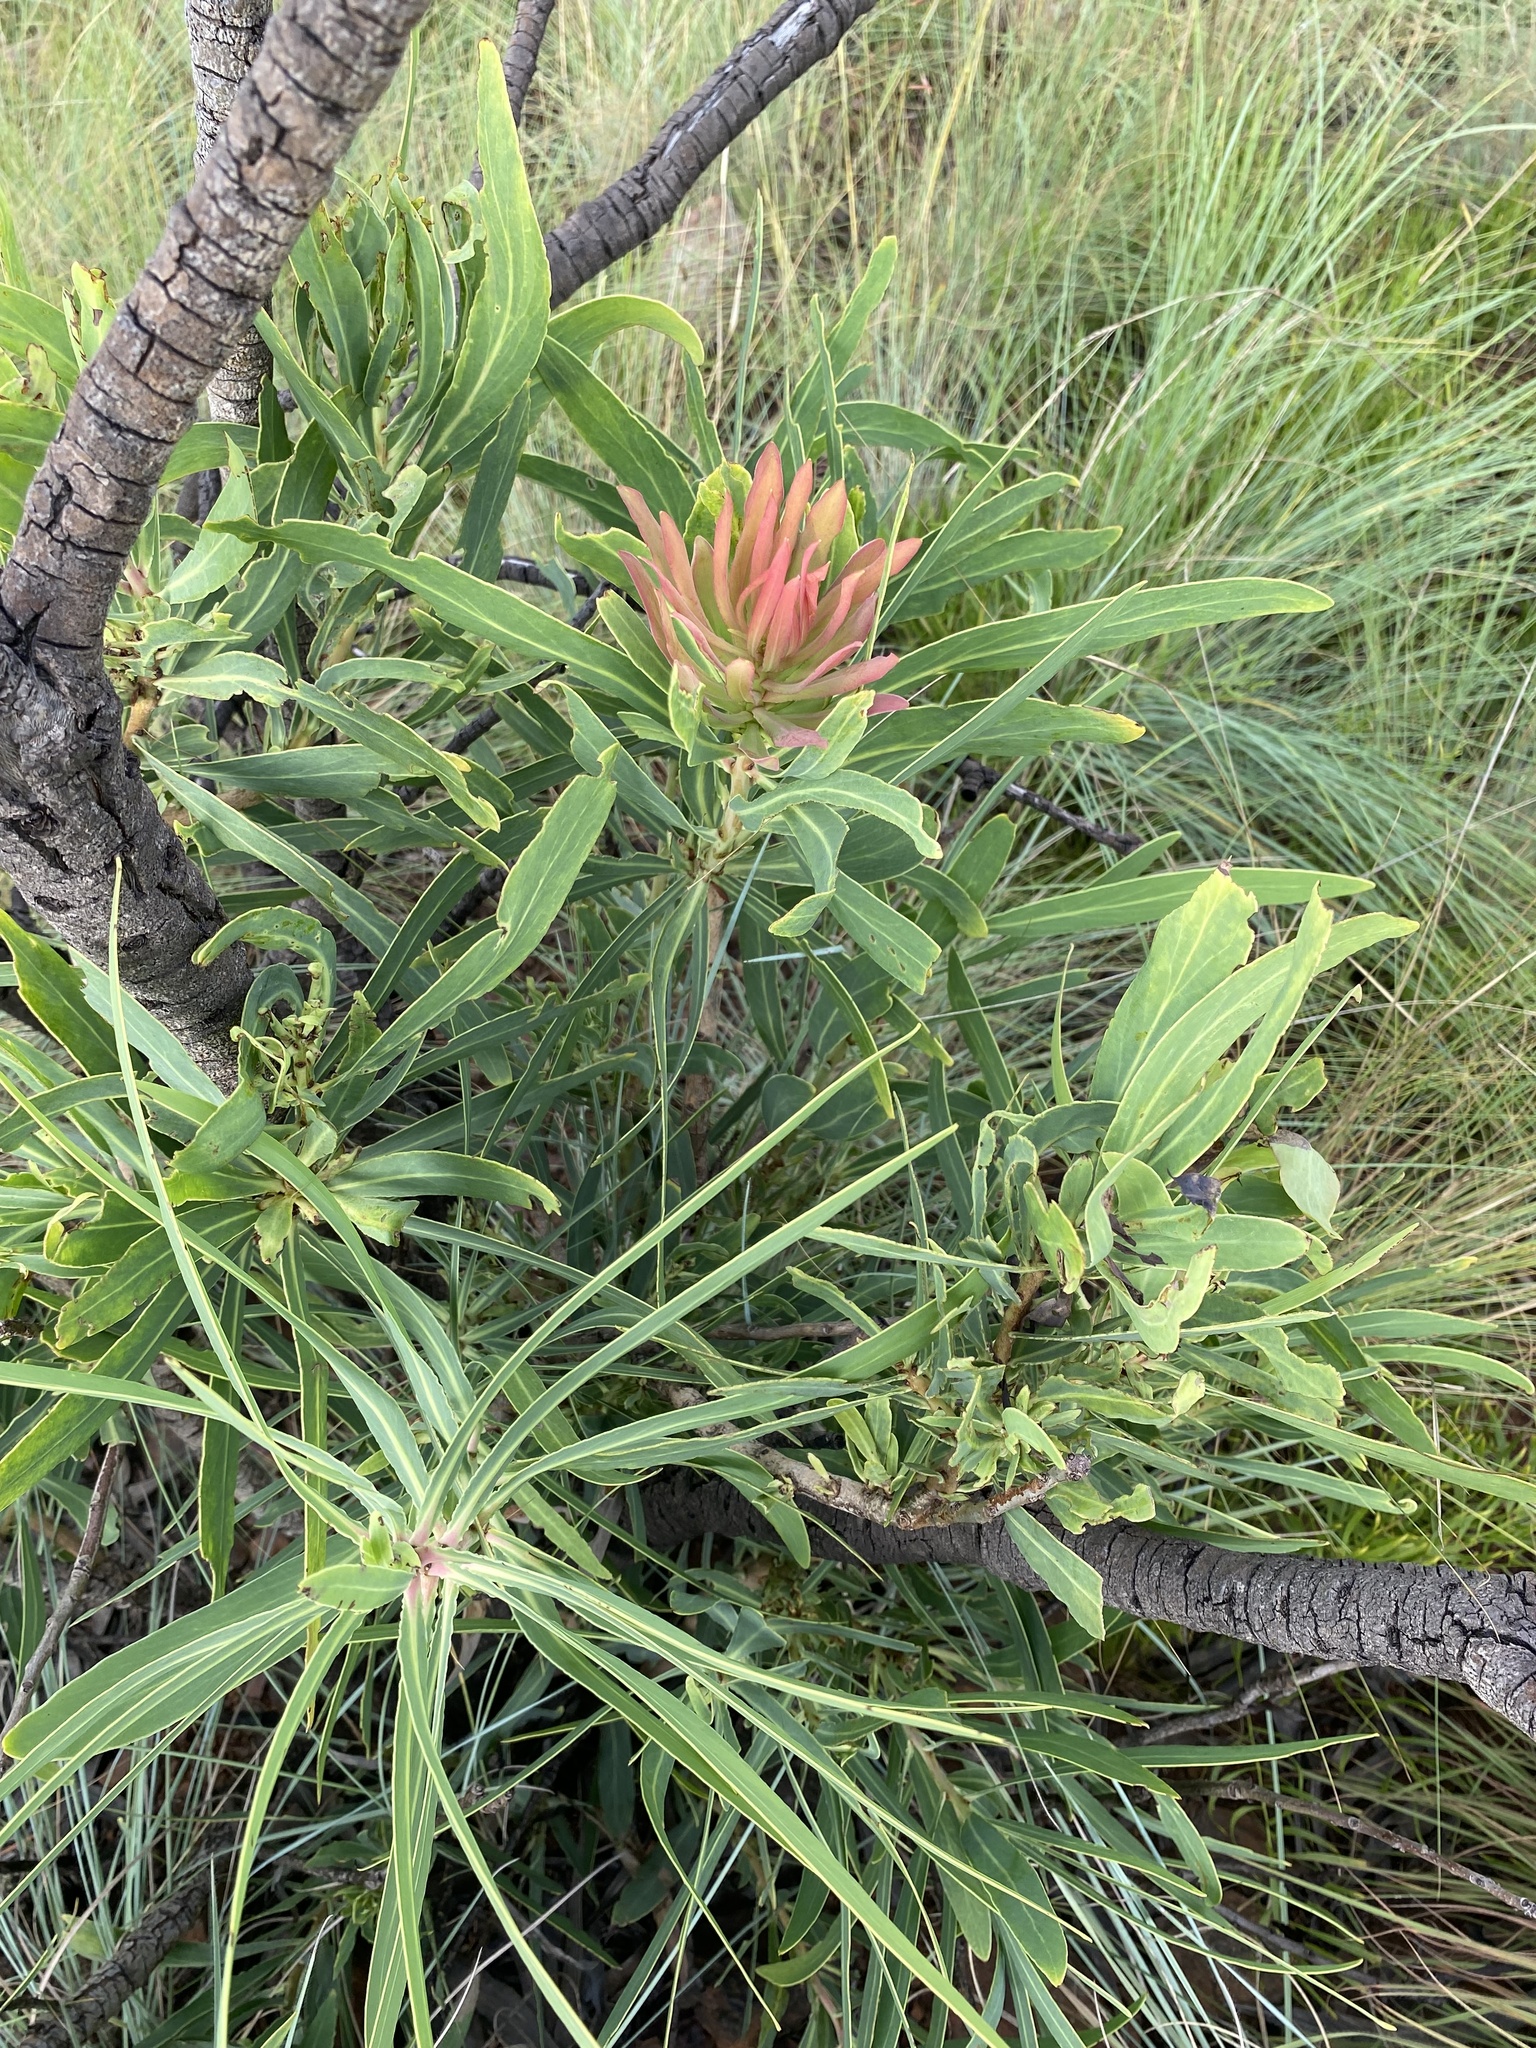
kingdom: Plantae
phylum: Tracheophyta
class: Magnoliopsida
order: Proteales
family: Proteaceae
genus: Protea
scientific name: Protea caffra
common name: Common sugarbush
